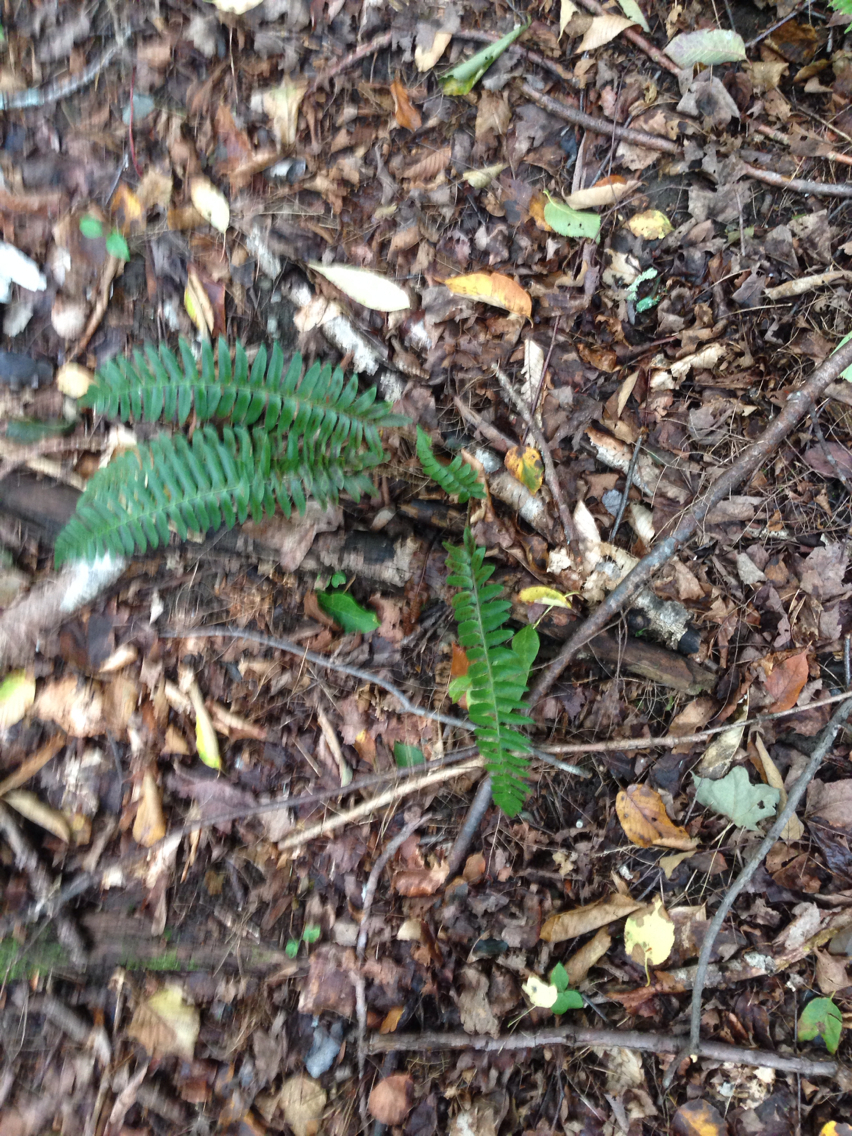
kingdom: Plantae
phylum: Tracheophyta
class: Polypodiopsida
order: Polypodiales
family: Dryopteridaceae
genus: Polystichum
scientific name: Polystichum acrostichoides
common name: Christmas fern
